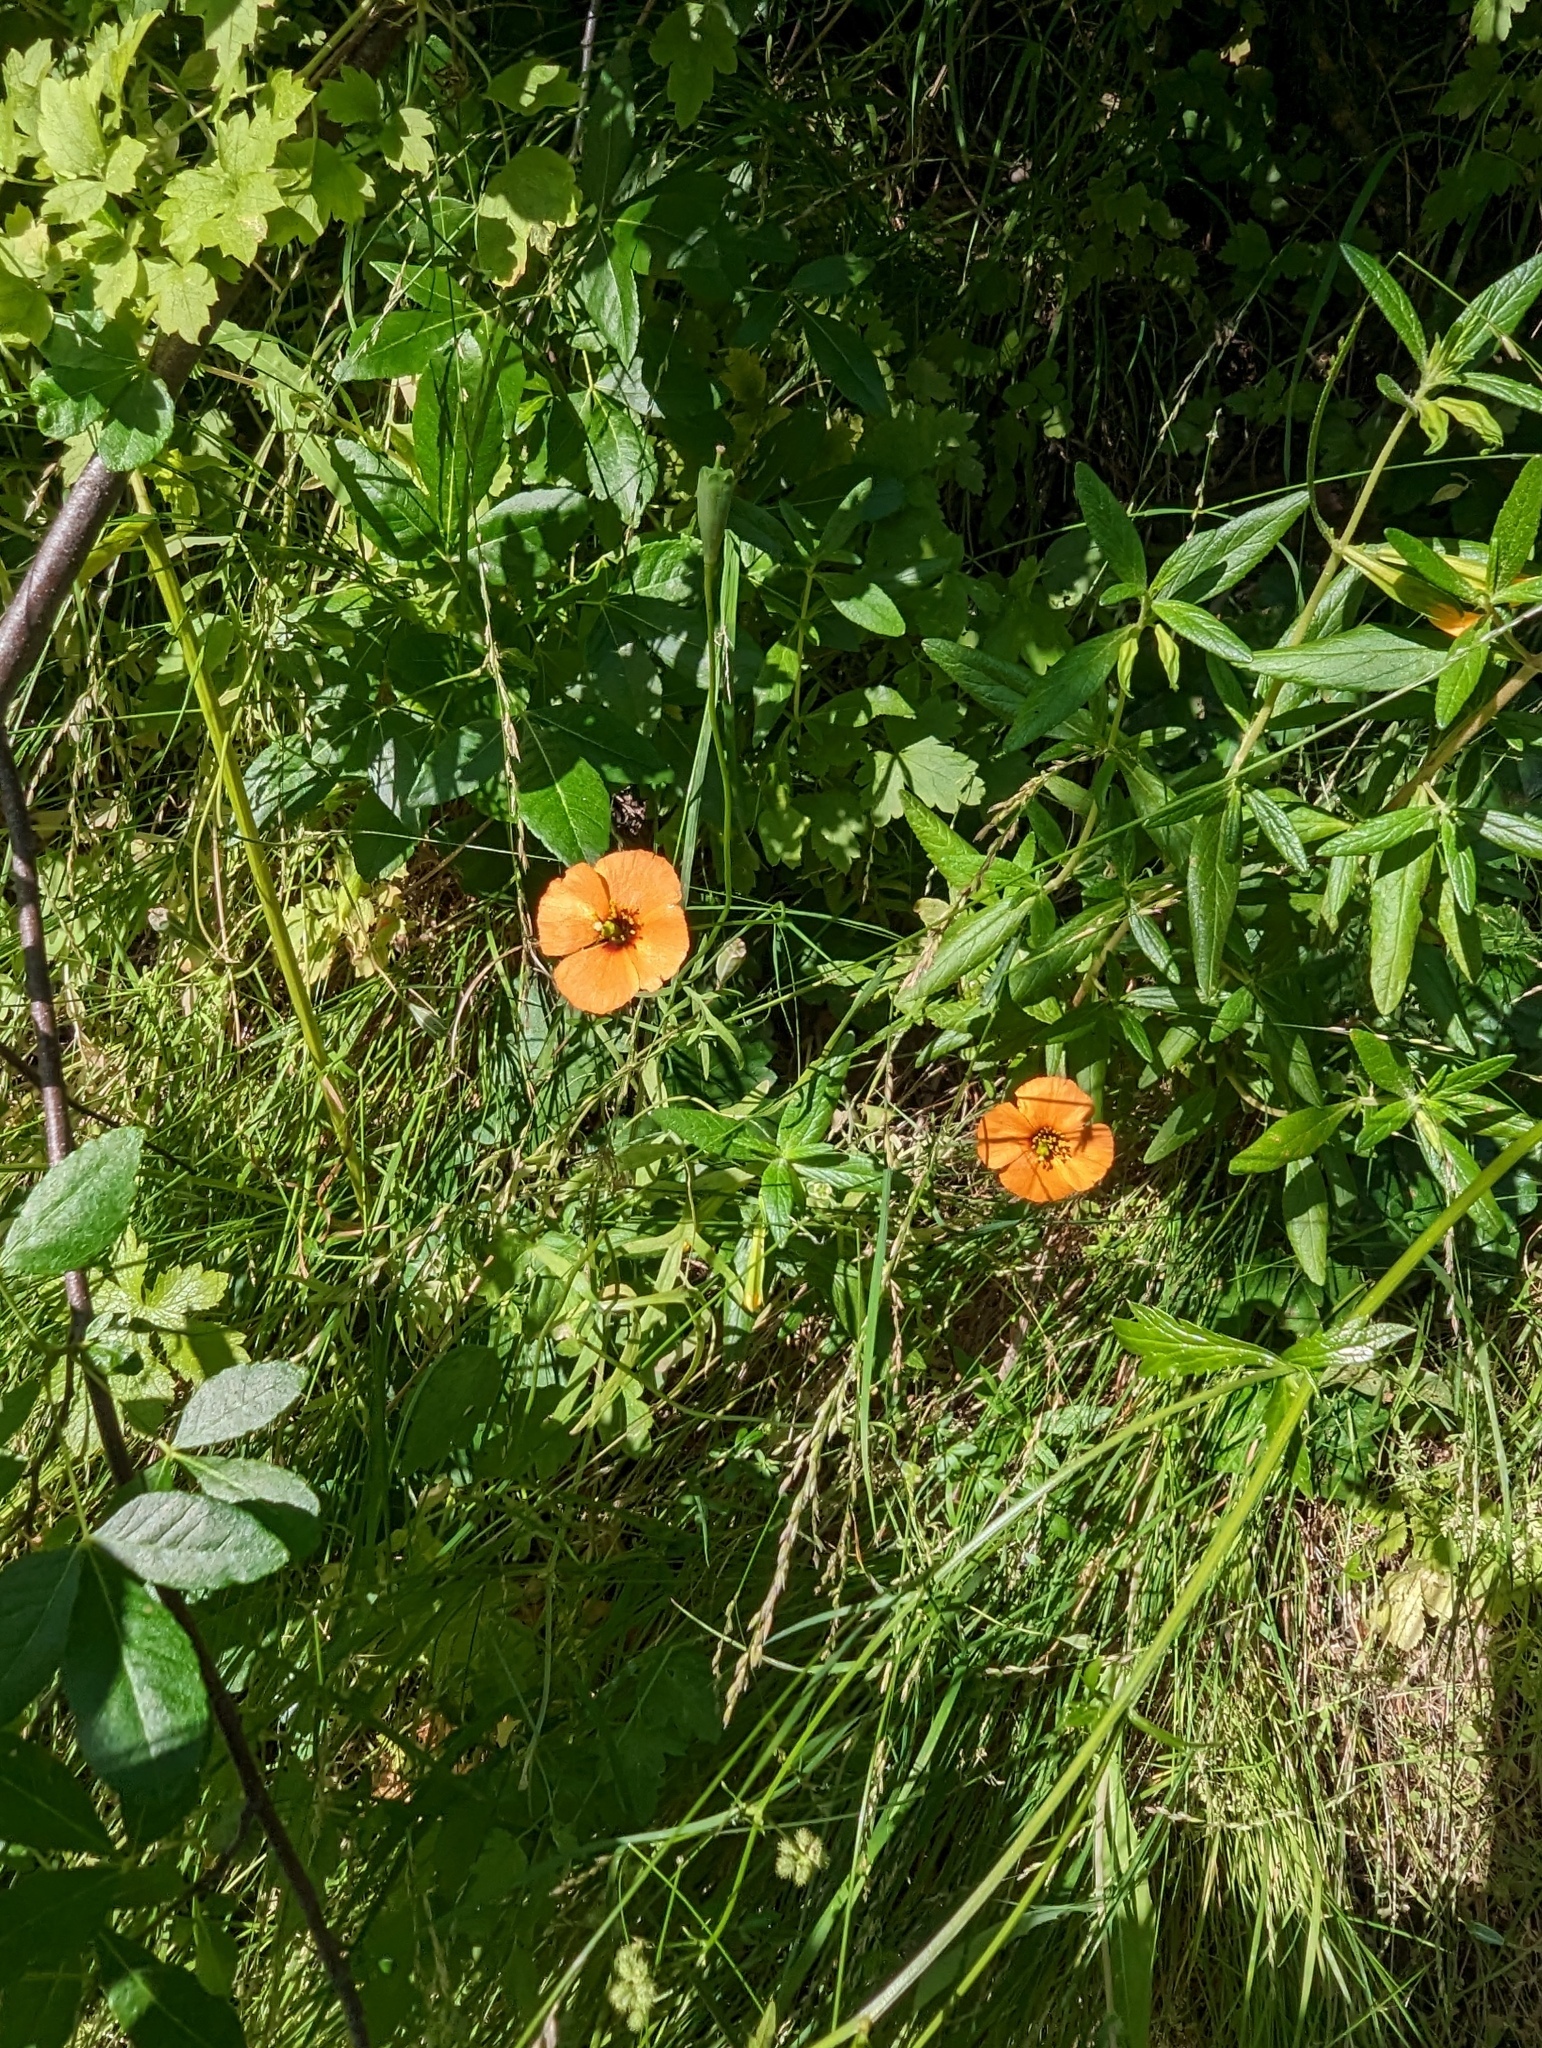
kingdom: Plantae
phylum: Tracheophyta
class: Magnoliopsida
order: Ranunculales
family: Papaveraceae
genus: Stylomecon
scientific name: Stylomecon heterophylla
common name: Flaming-poppy
